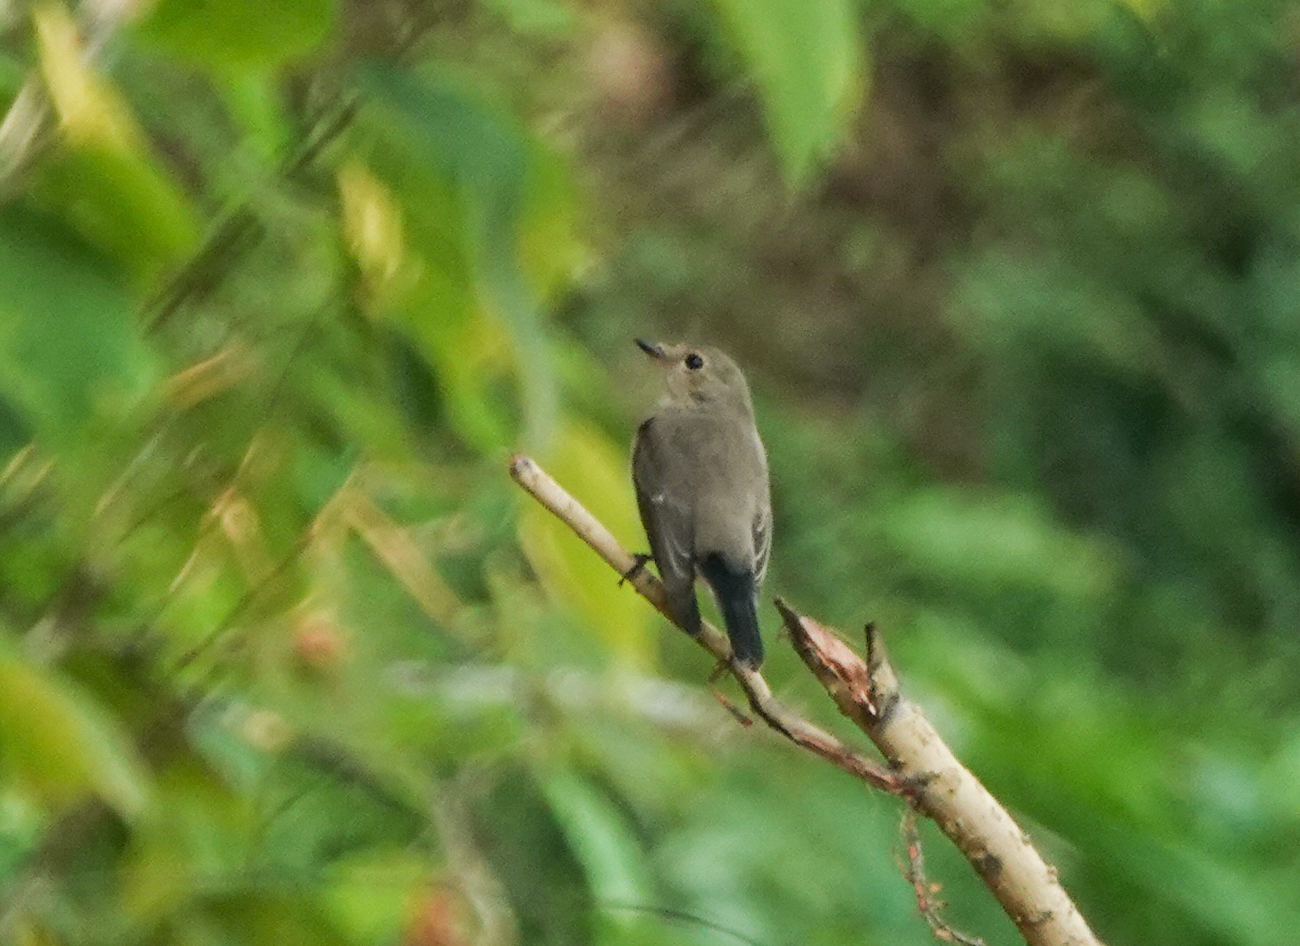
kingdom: Animalia
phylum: Chordata
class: Aves
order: Passeriformes
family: Muscicapidae
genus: Ficedula
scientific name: Ficedula albicilla
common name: Taiga flycatcher
